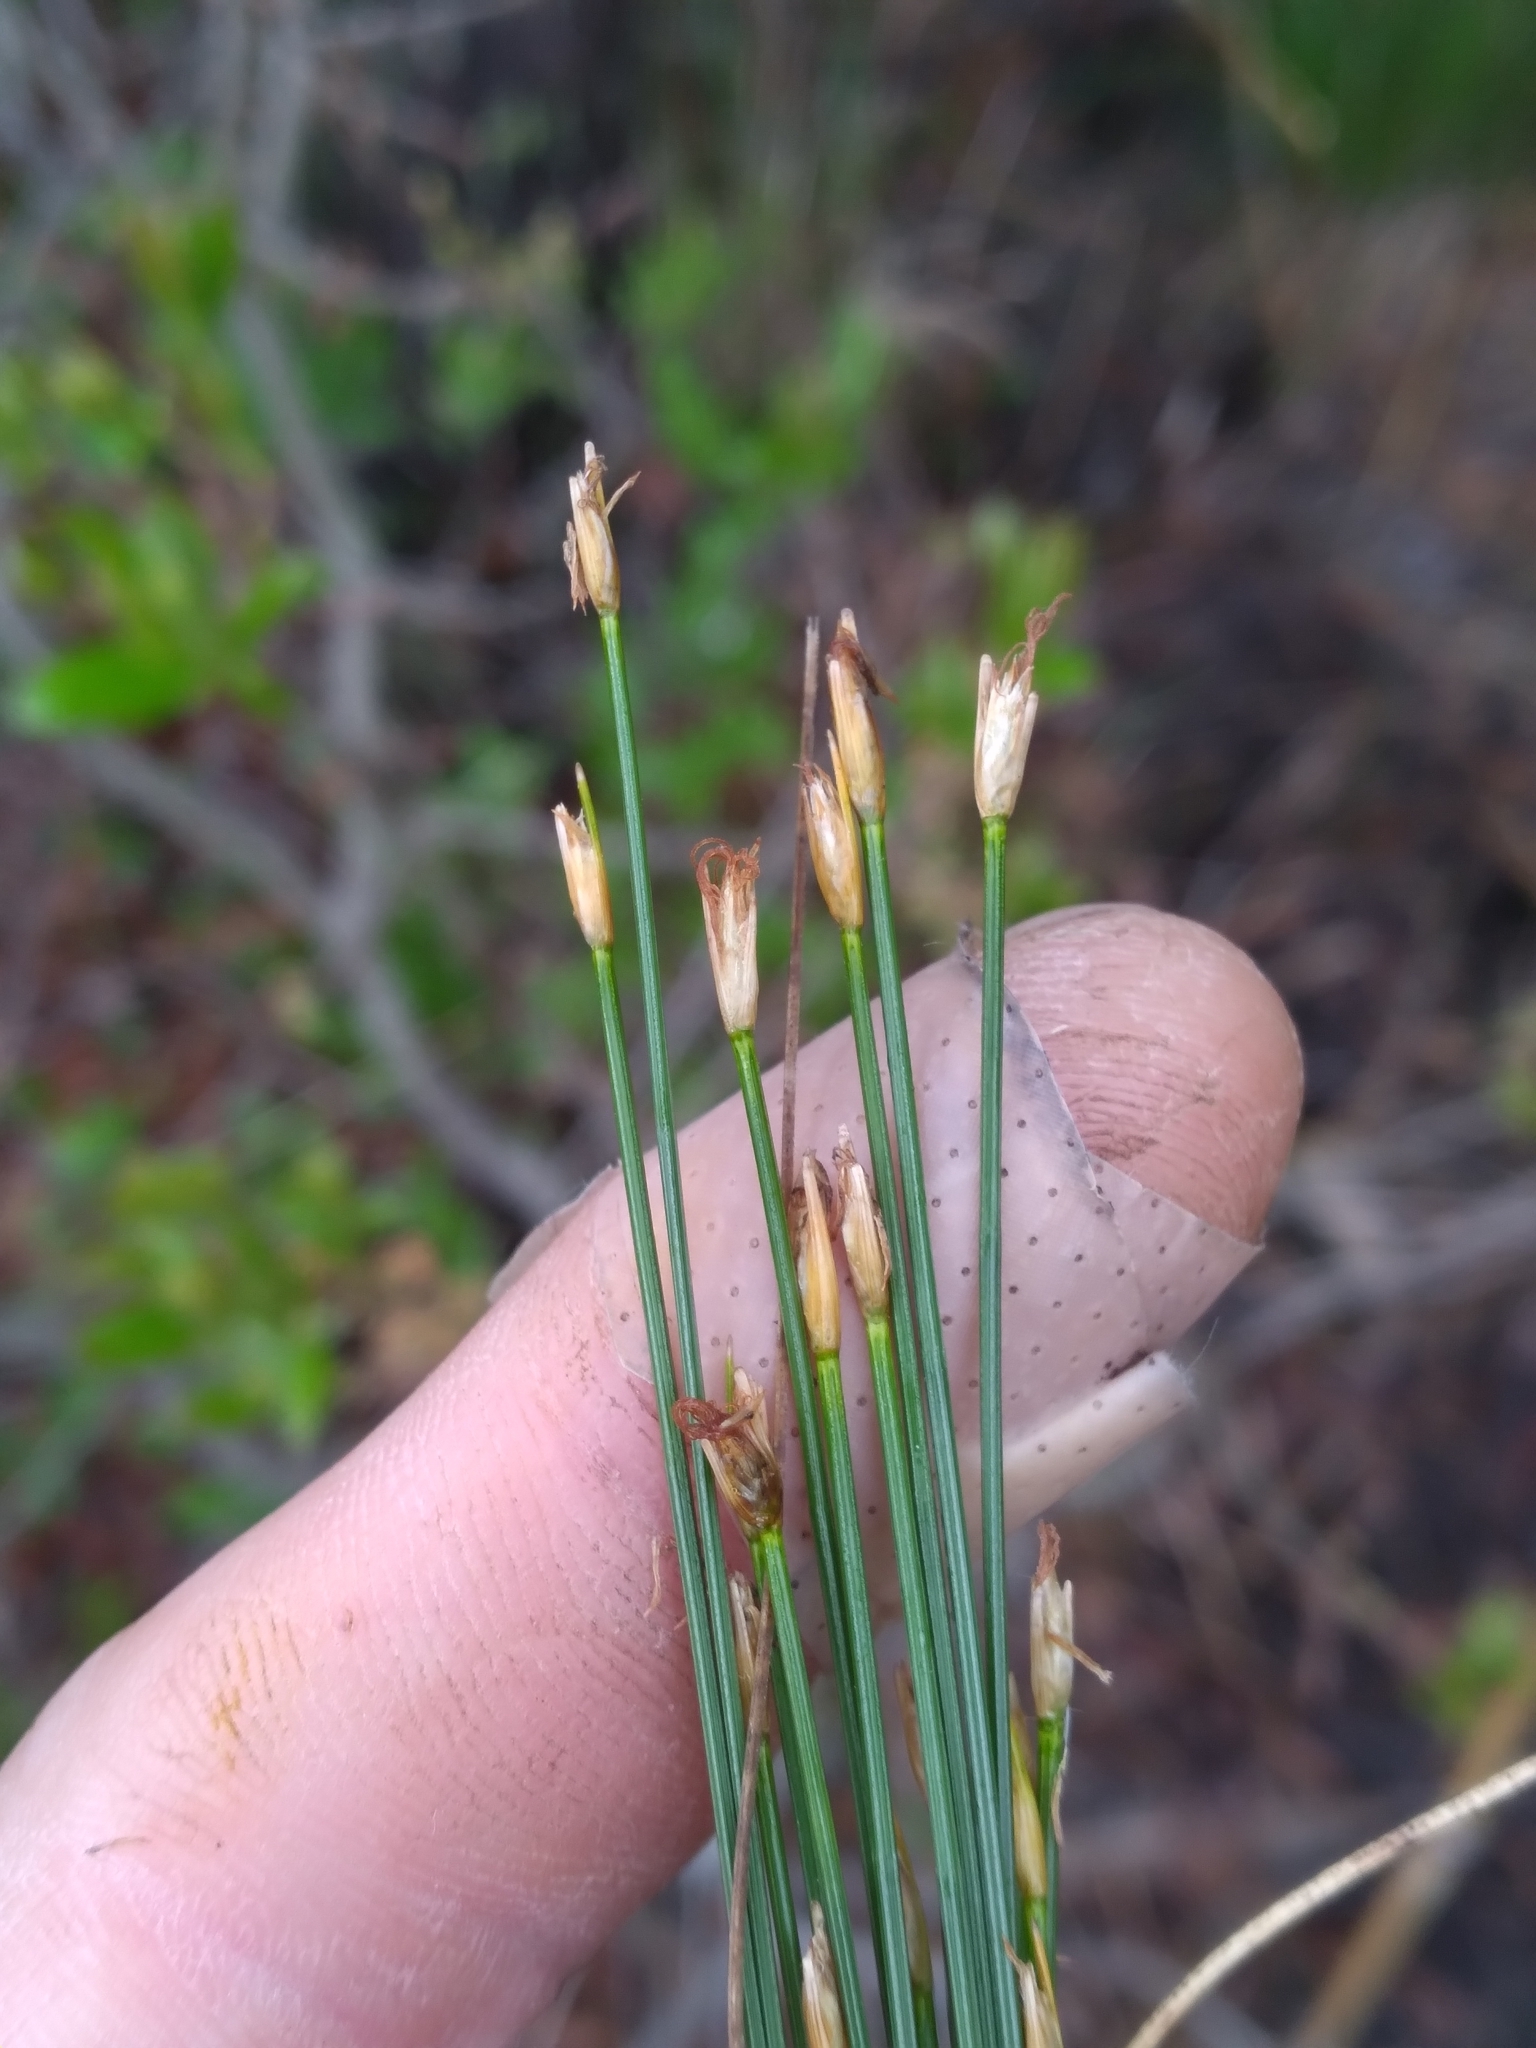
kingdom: Plantae
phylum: Tracheophyta
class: Liliopsida
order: Poales
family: Cyperaceae
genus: Trichophorum
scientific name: Trichophorum cespitosum
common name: Cespitose bulrush
